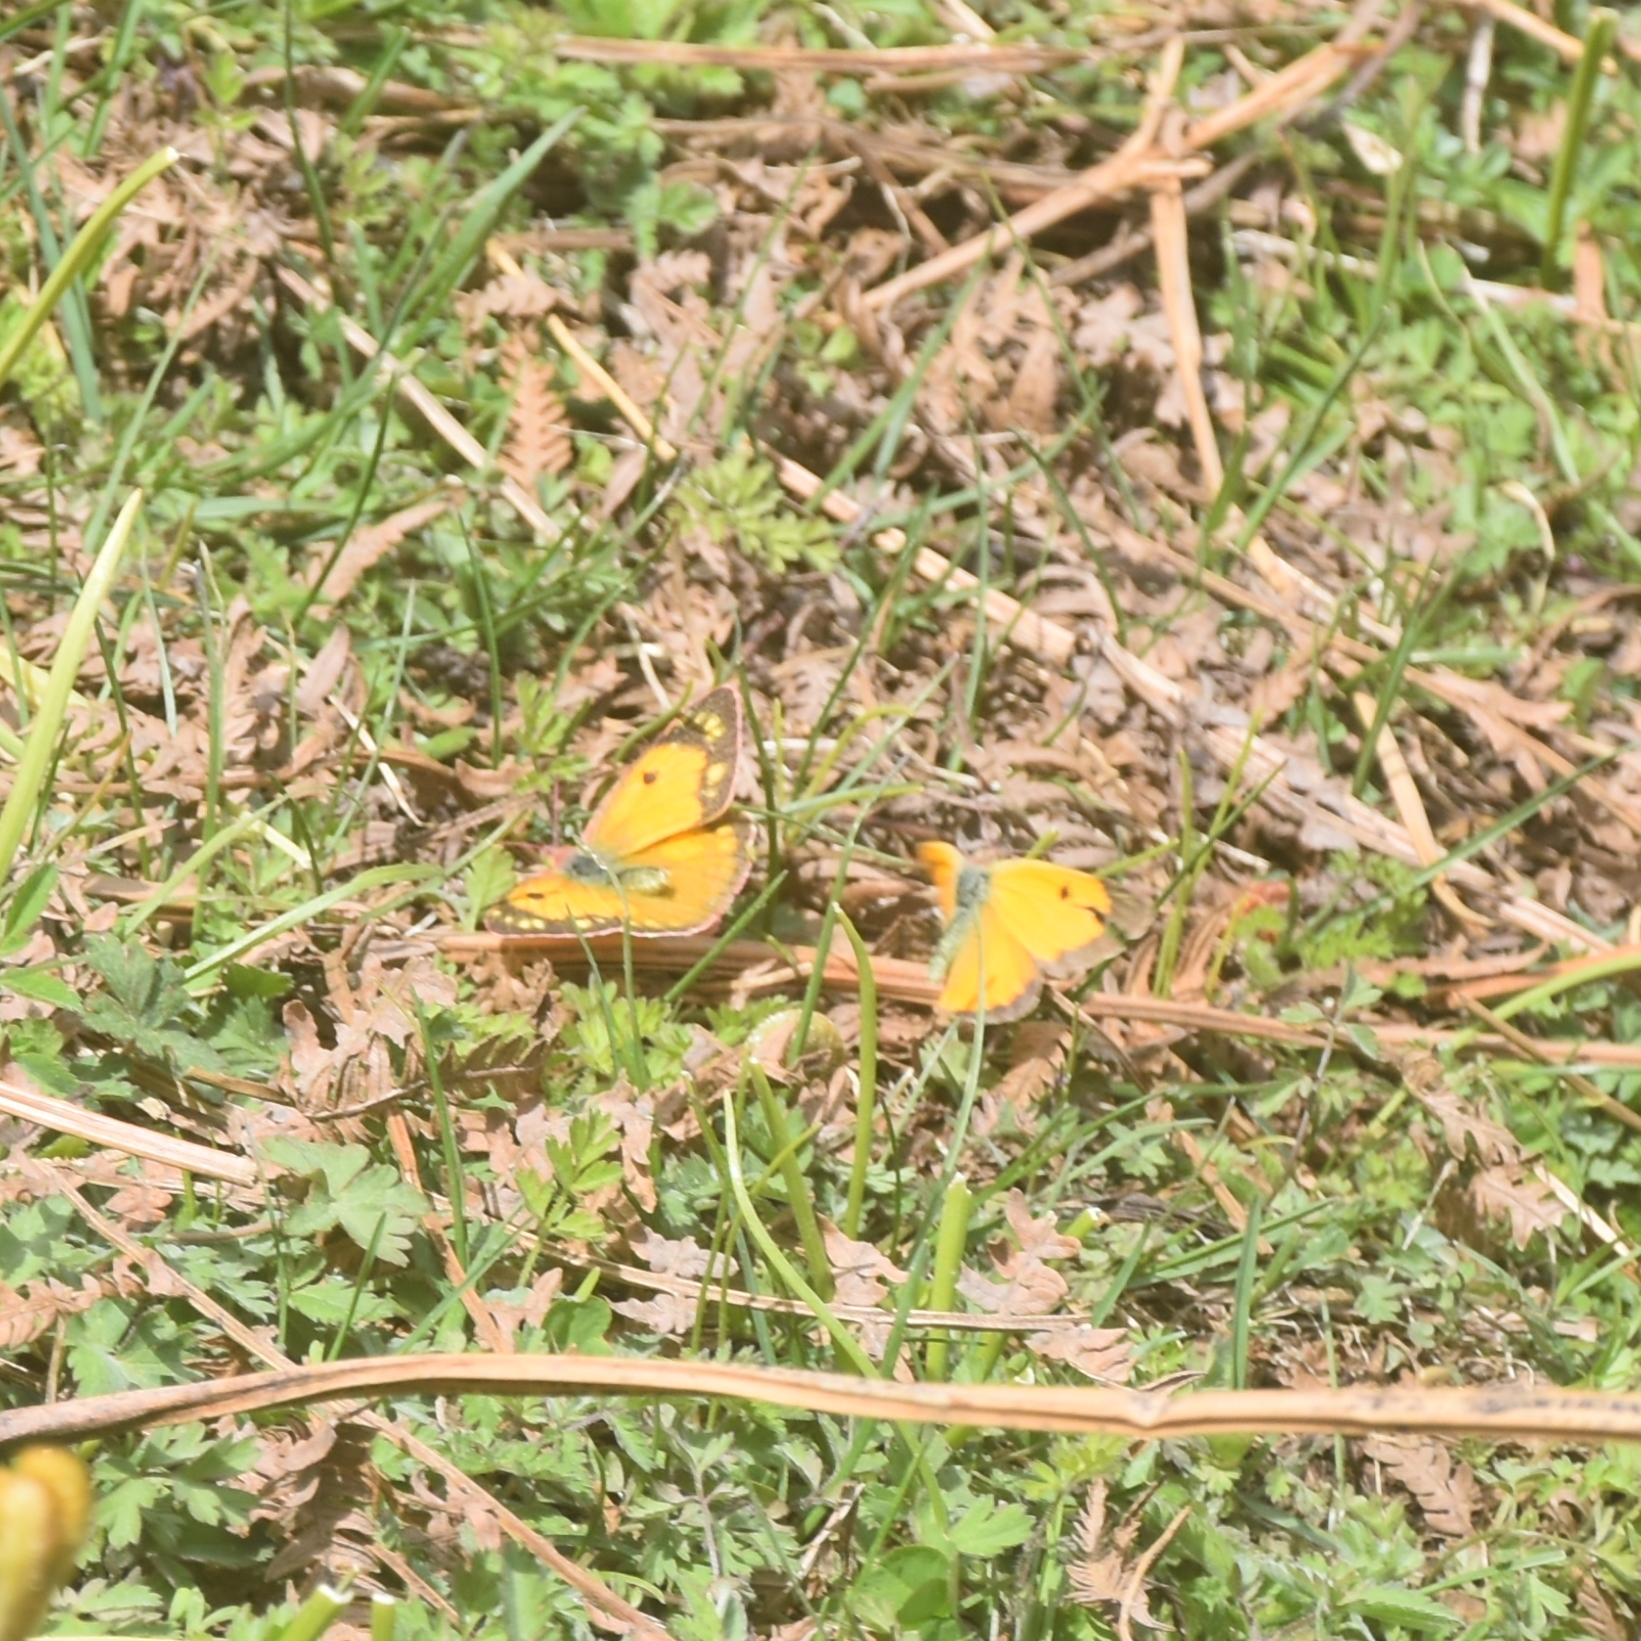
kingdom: Animalia
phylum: Arthropoda
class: Insecta
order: Lepidoptera
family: Pieridae
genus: Colias
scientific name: Colias fieldii
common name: Dark clouded yellow
